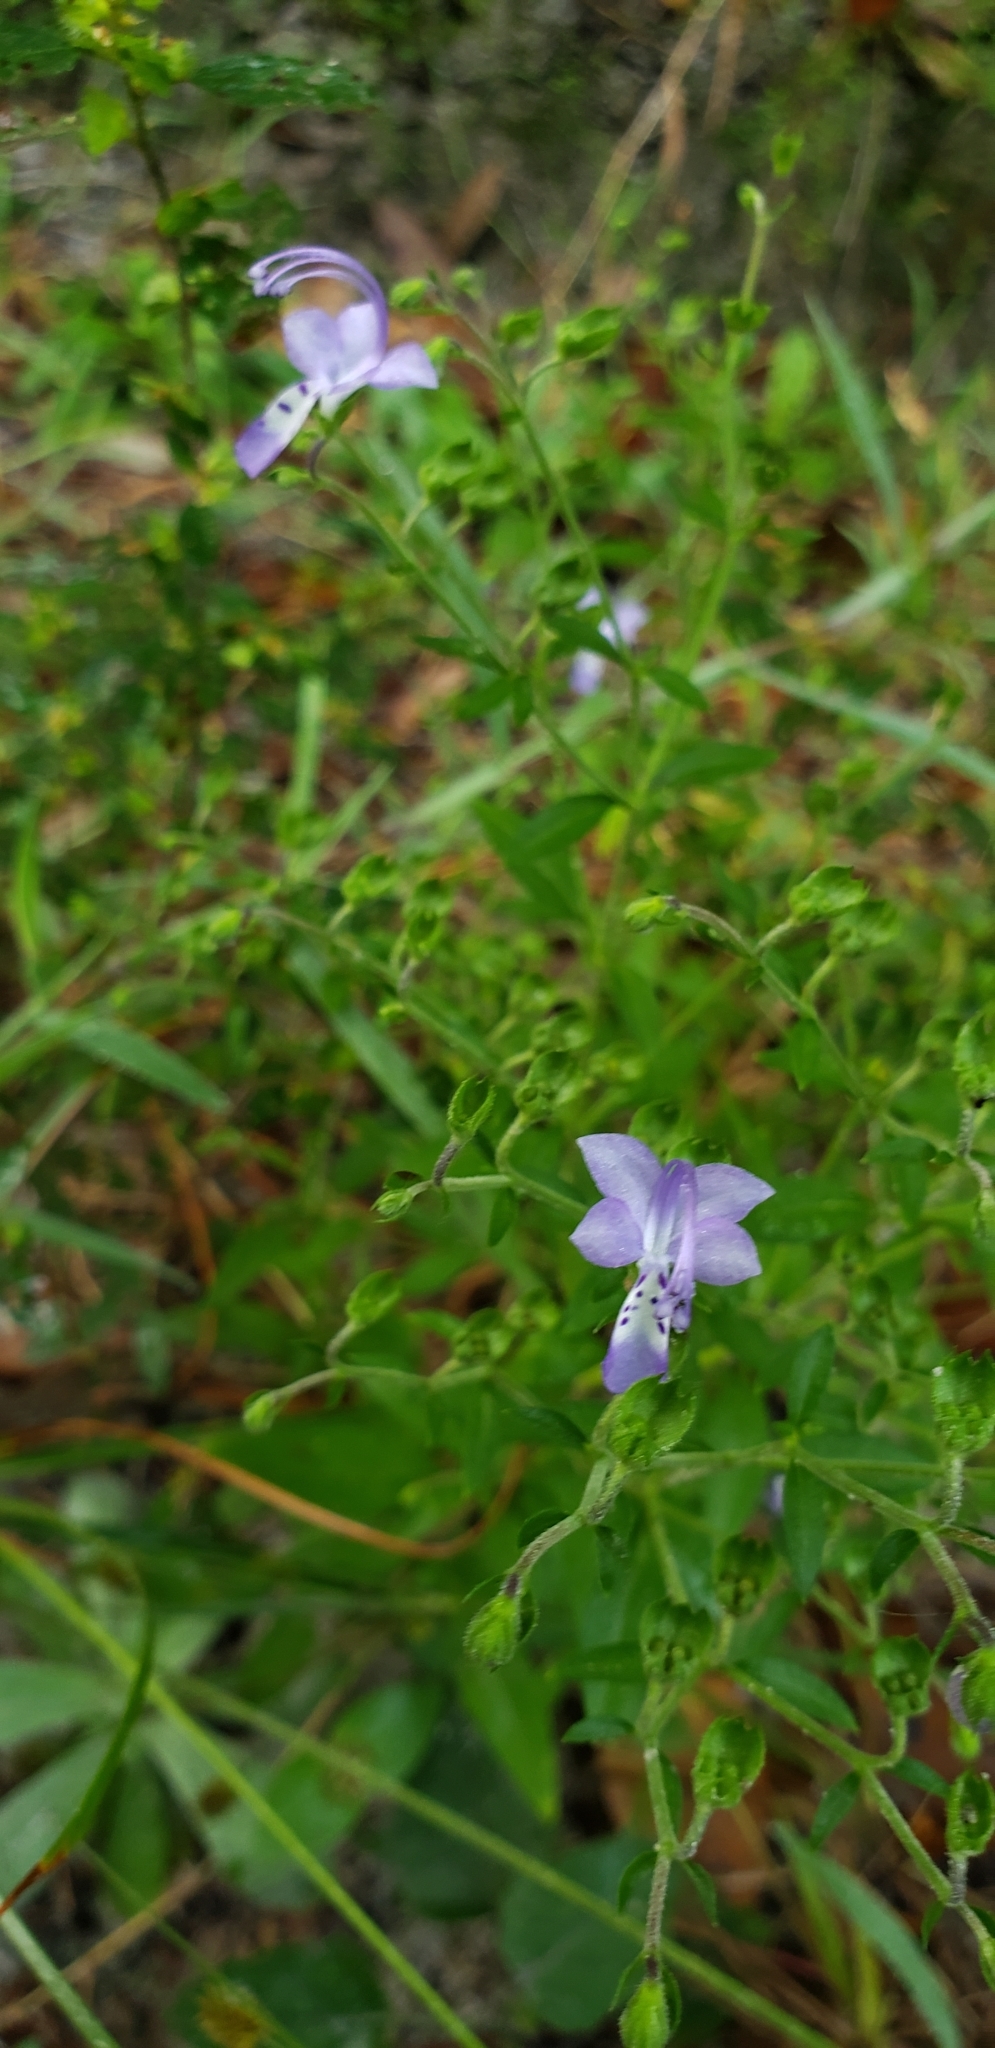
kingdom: Plantae
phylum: Tracheophyta
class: Magnoliopsida
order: Lamiales
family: Lamiaceae
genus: Trichostema
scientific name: Trichostema
